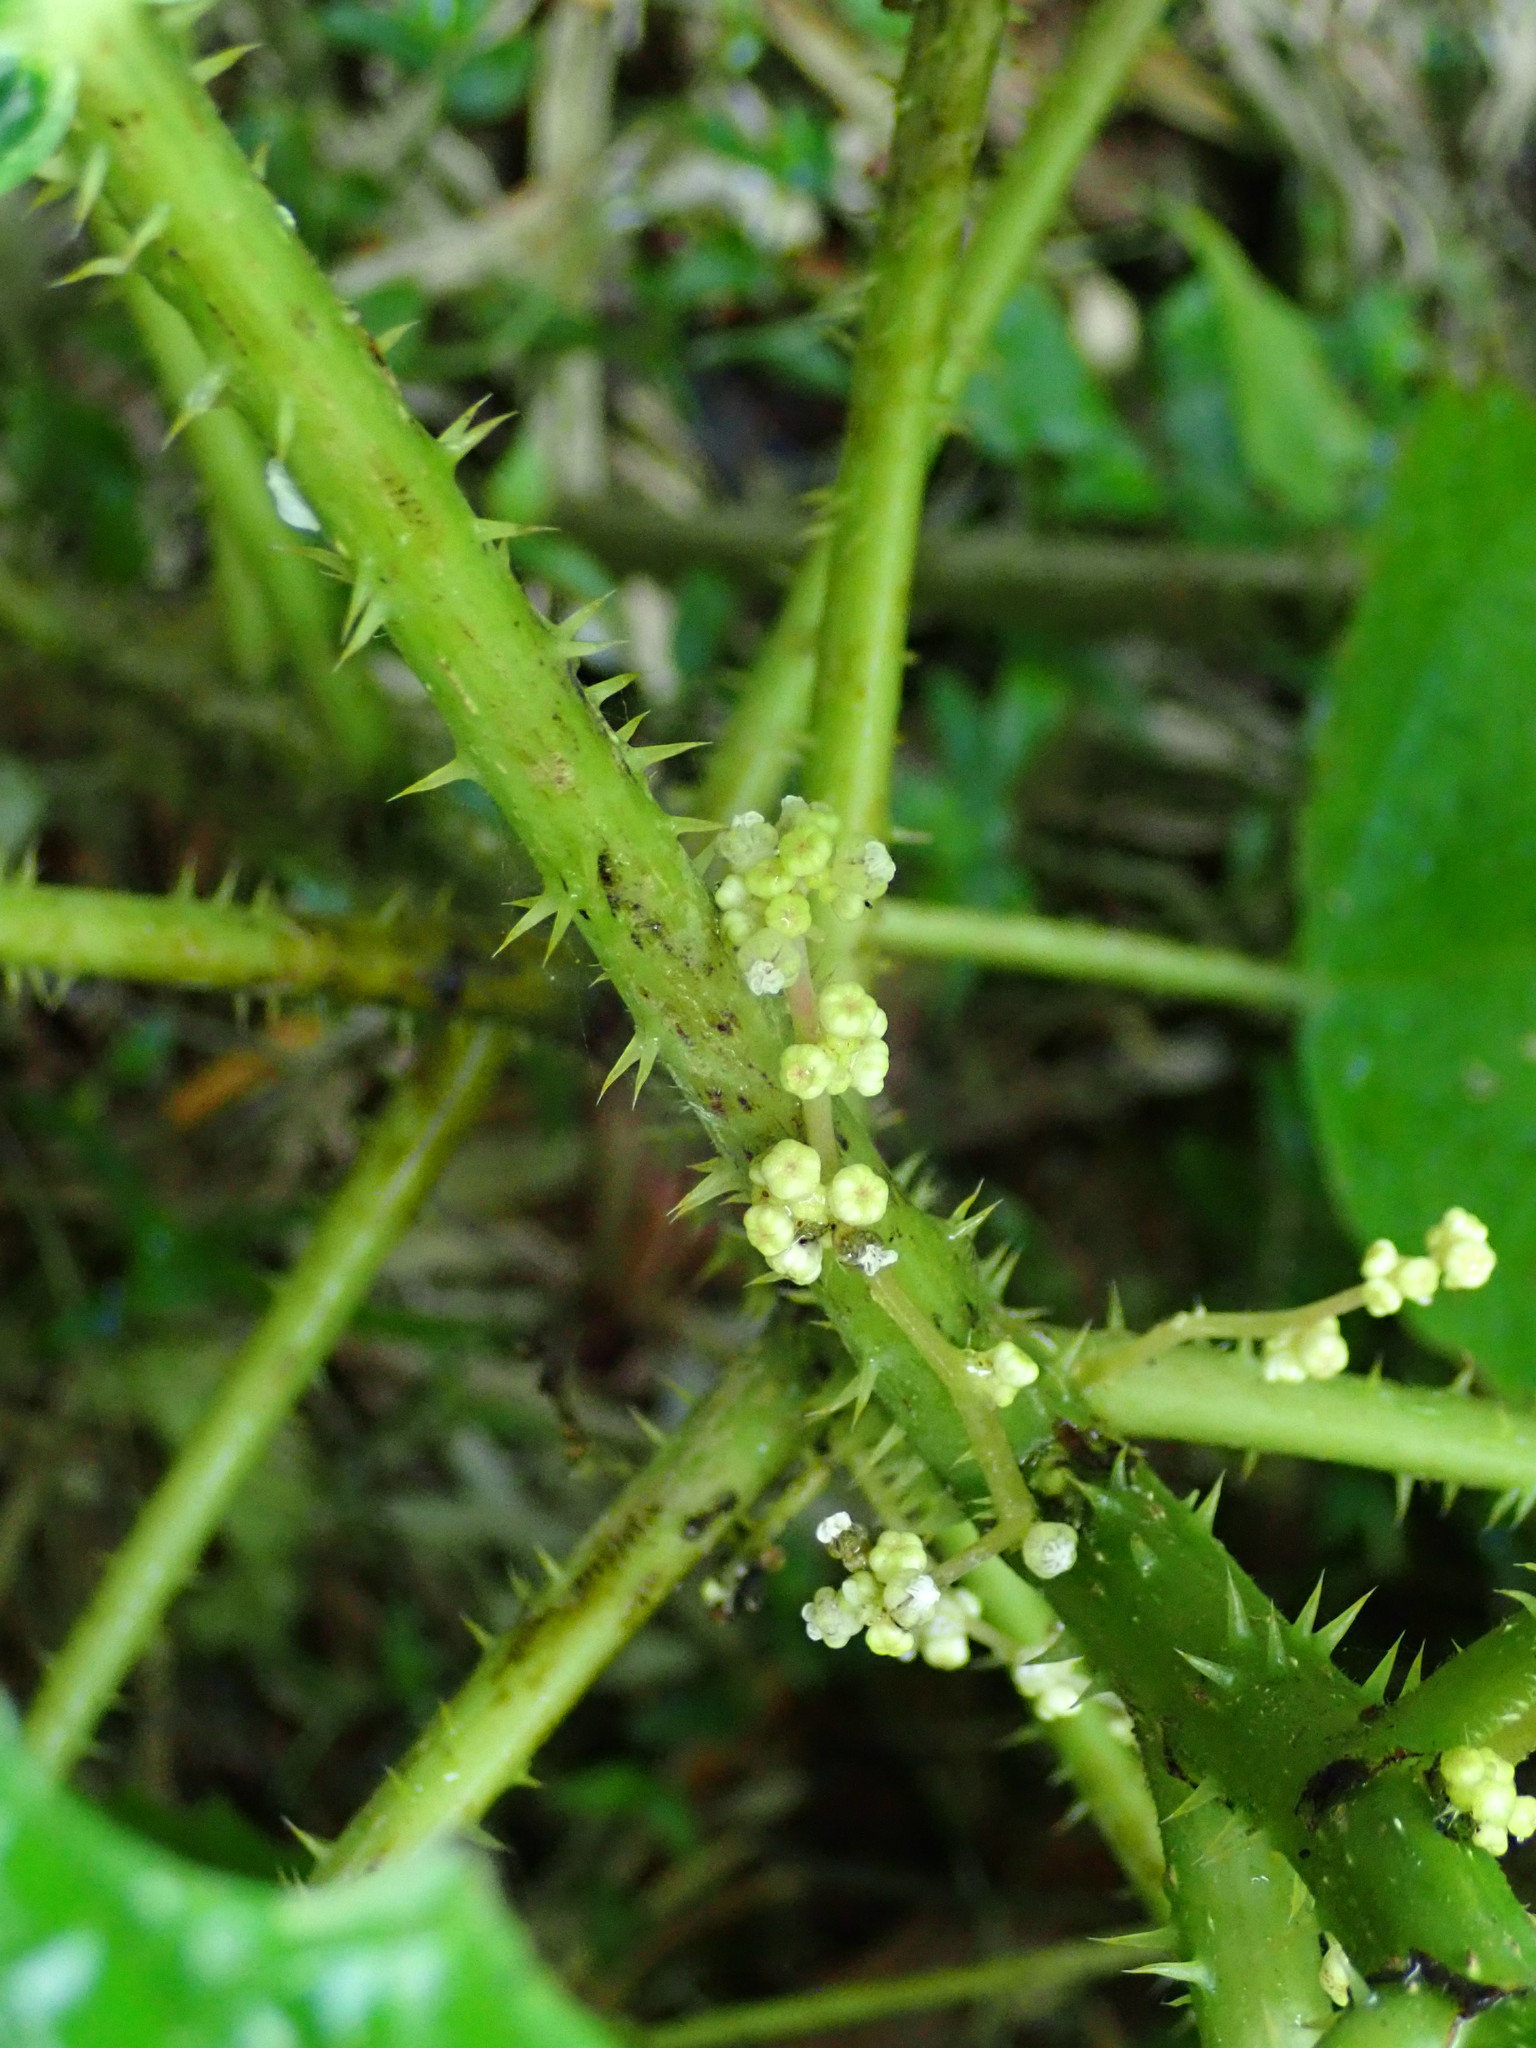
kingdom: Plantae
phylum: Tracheophyta
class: Magnoliopsida
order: Rosales
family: Urticaceae
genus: Urera
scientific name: Urera baccifera
